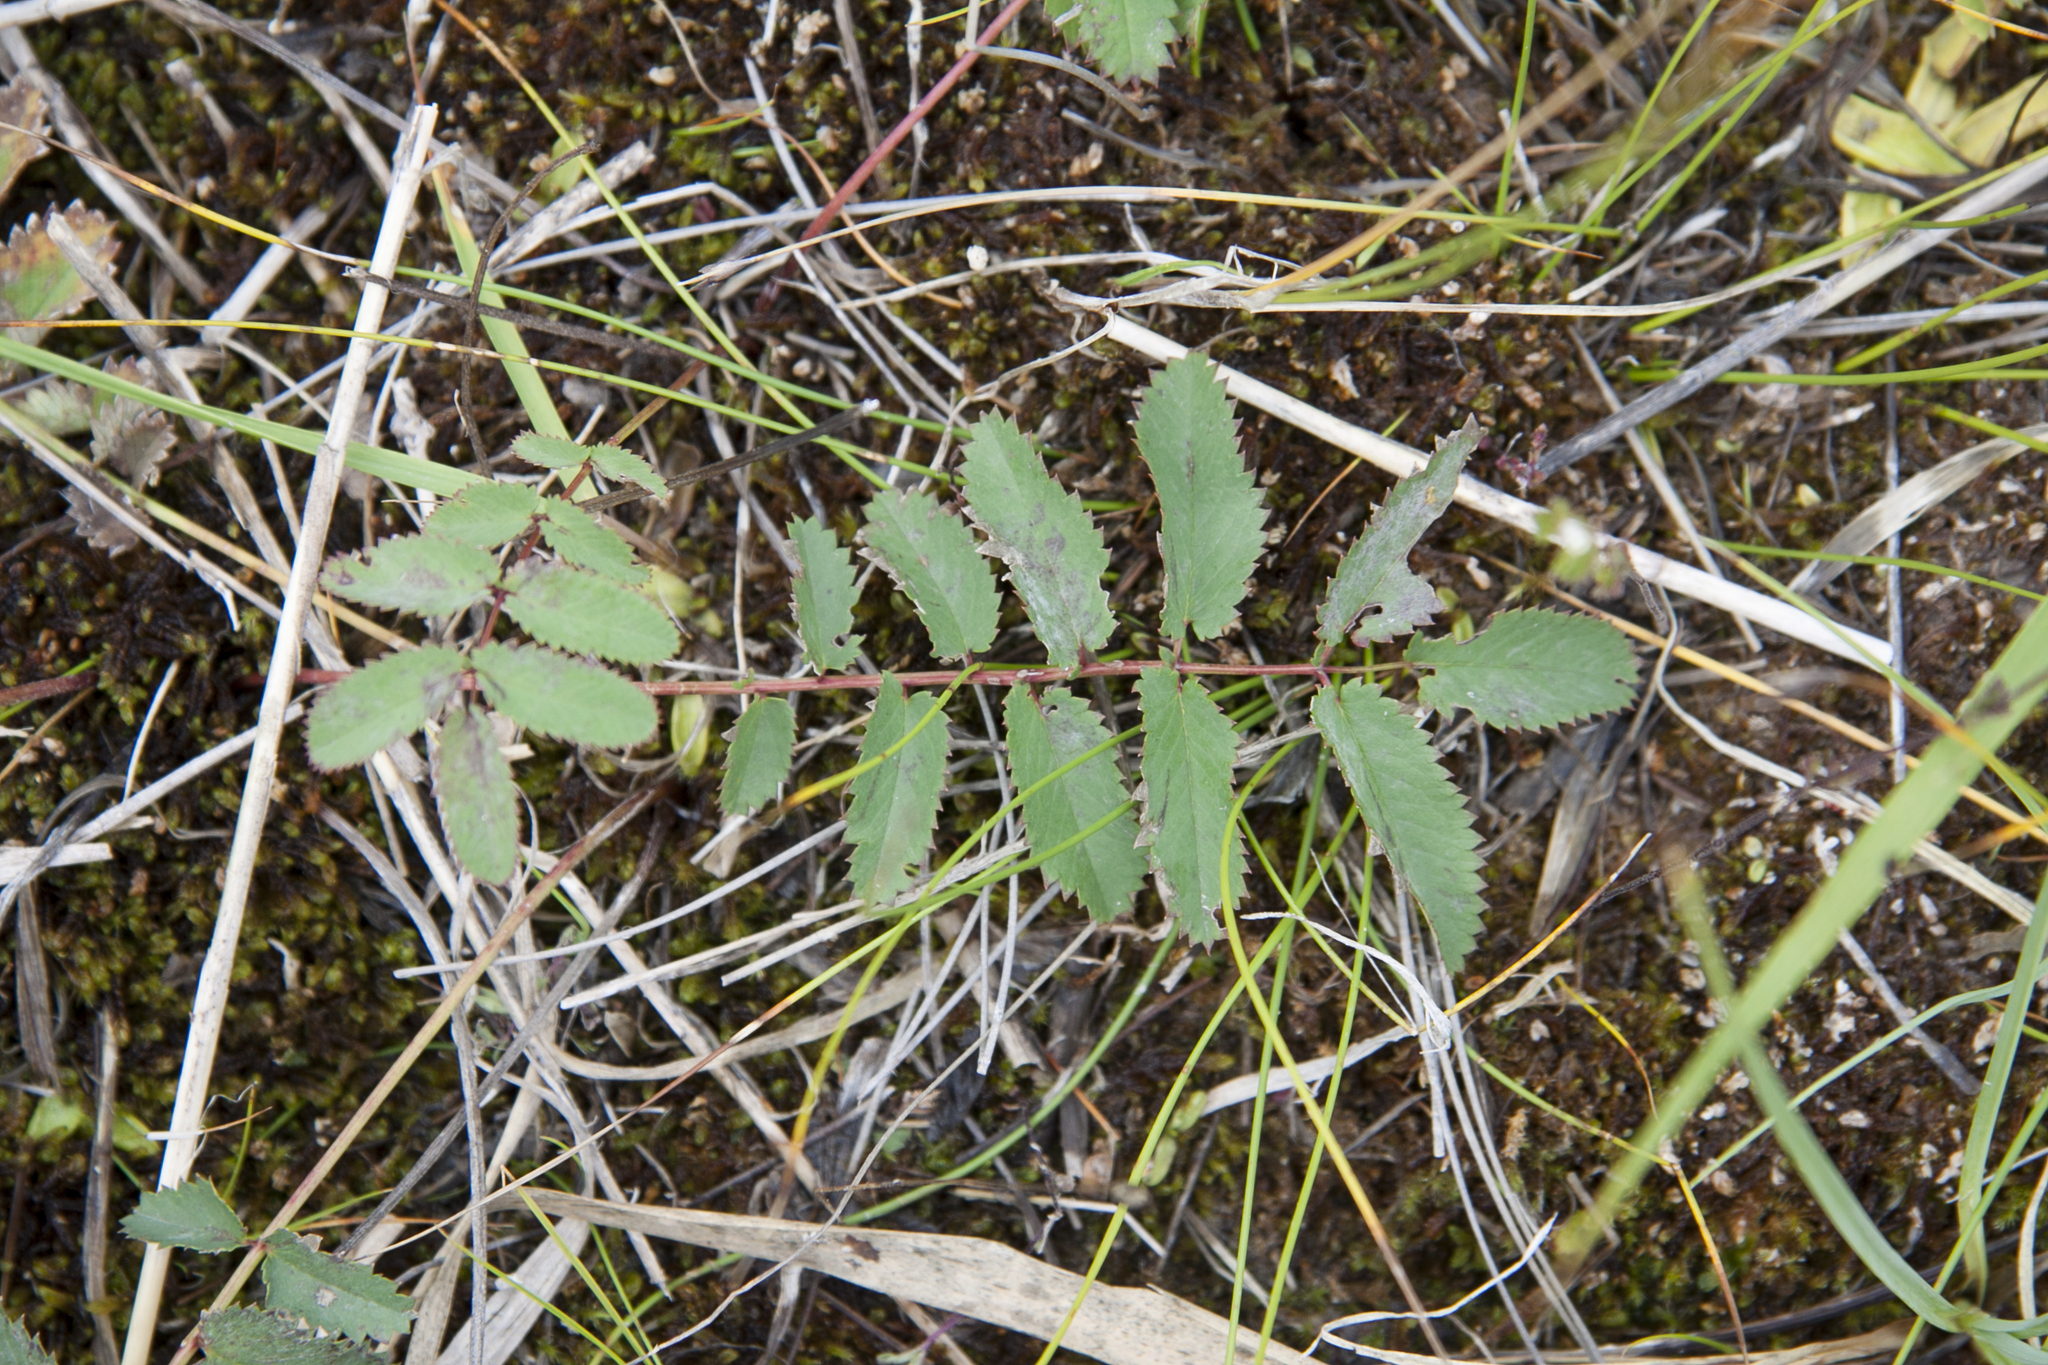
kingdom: Plantae
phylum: Tracheophyta
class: Magnoliopsida
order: Rosales
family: Rosaceae
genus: Sanguisorba
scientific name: Sanguisorba officinalis
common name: Great burnet
